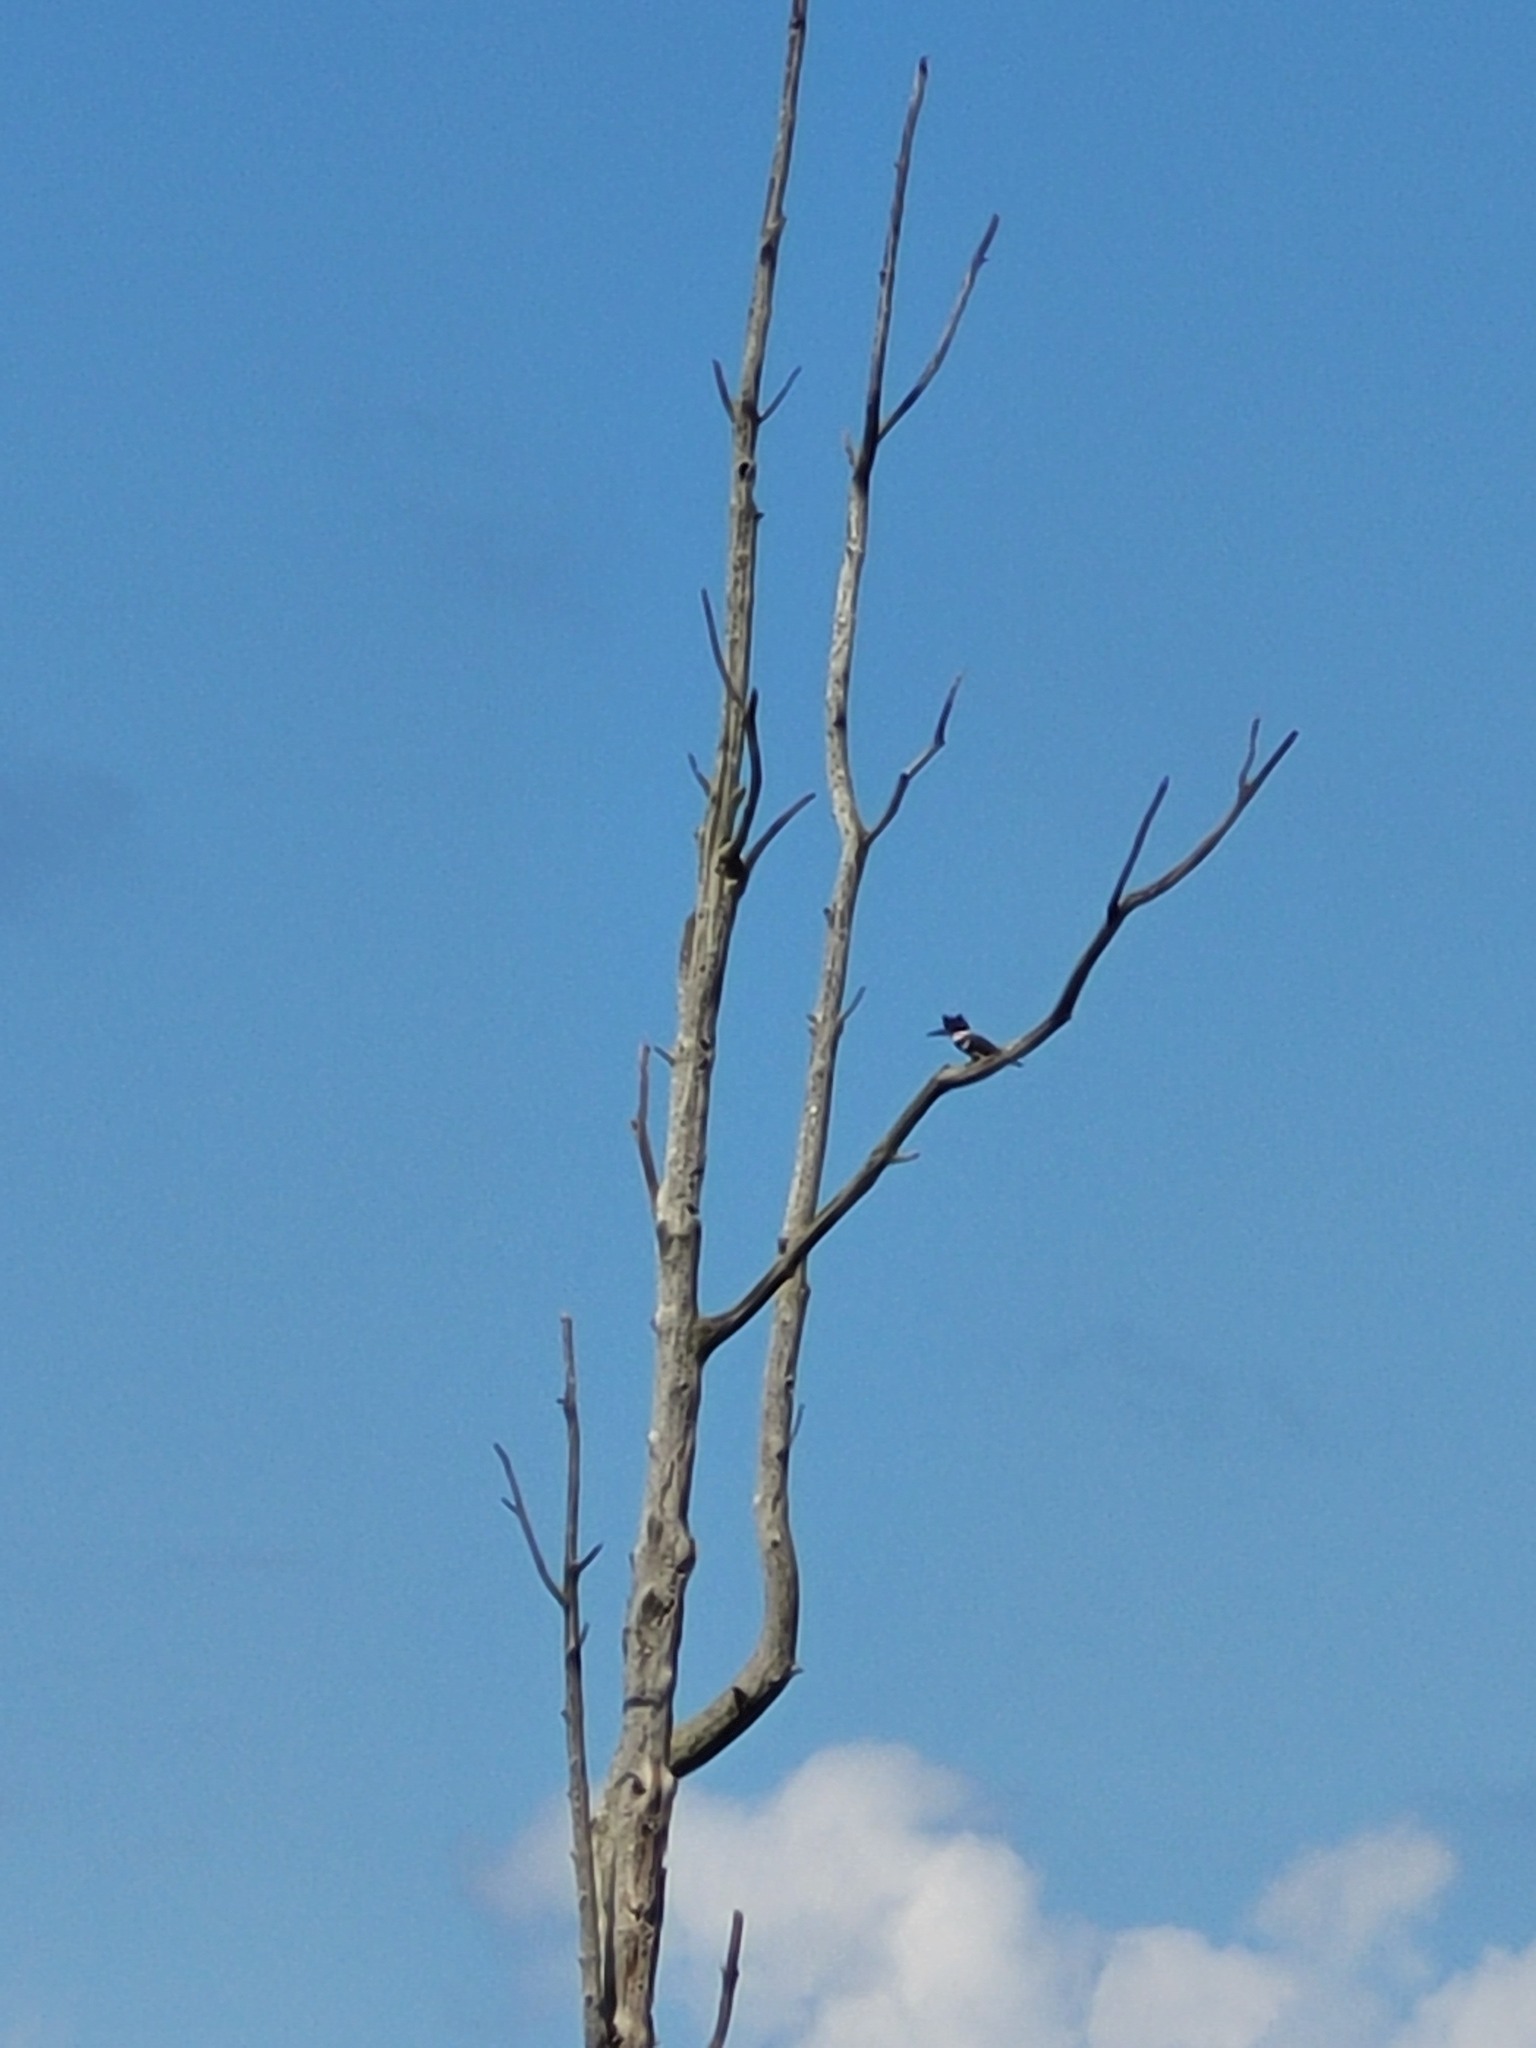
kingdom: Animalia
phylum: Chordata
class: Aves
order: Coraciiformes
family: Alcedinidae
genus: Megaceryle
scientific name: Megaceryle alcyon
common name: Belted kingfisher
